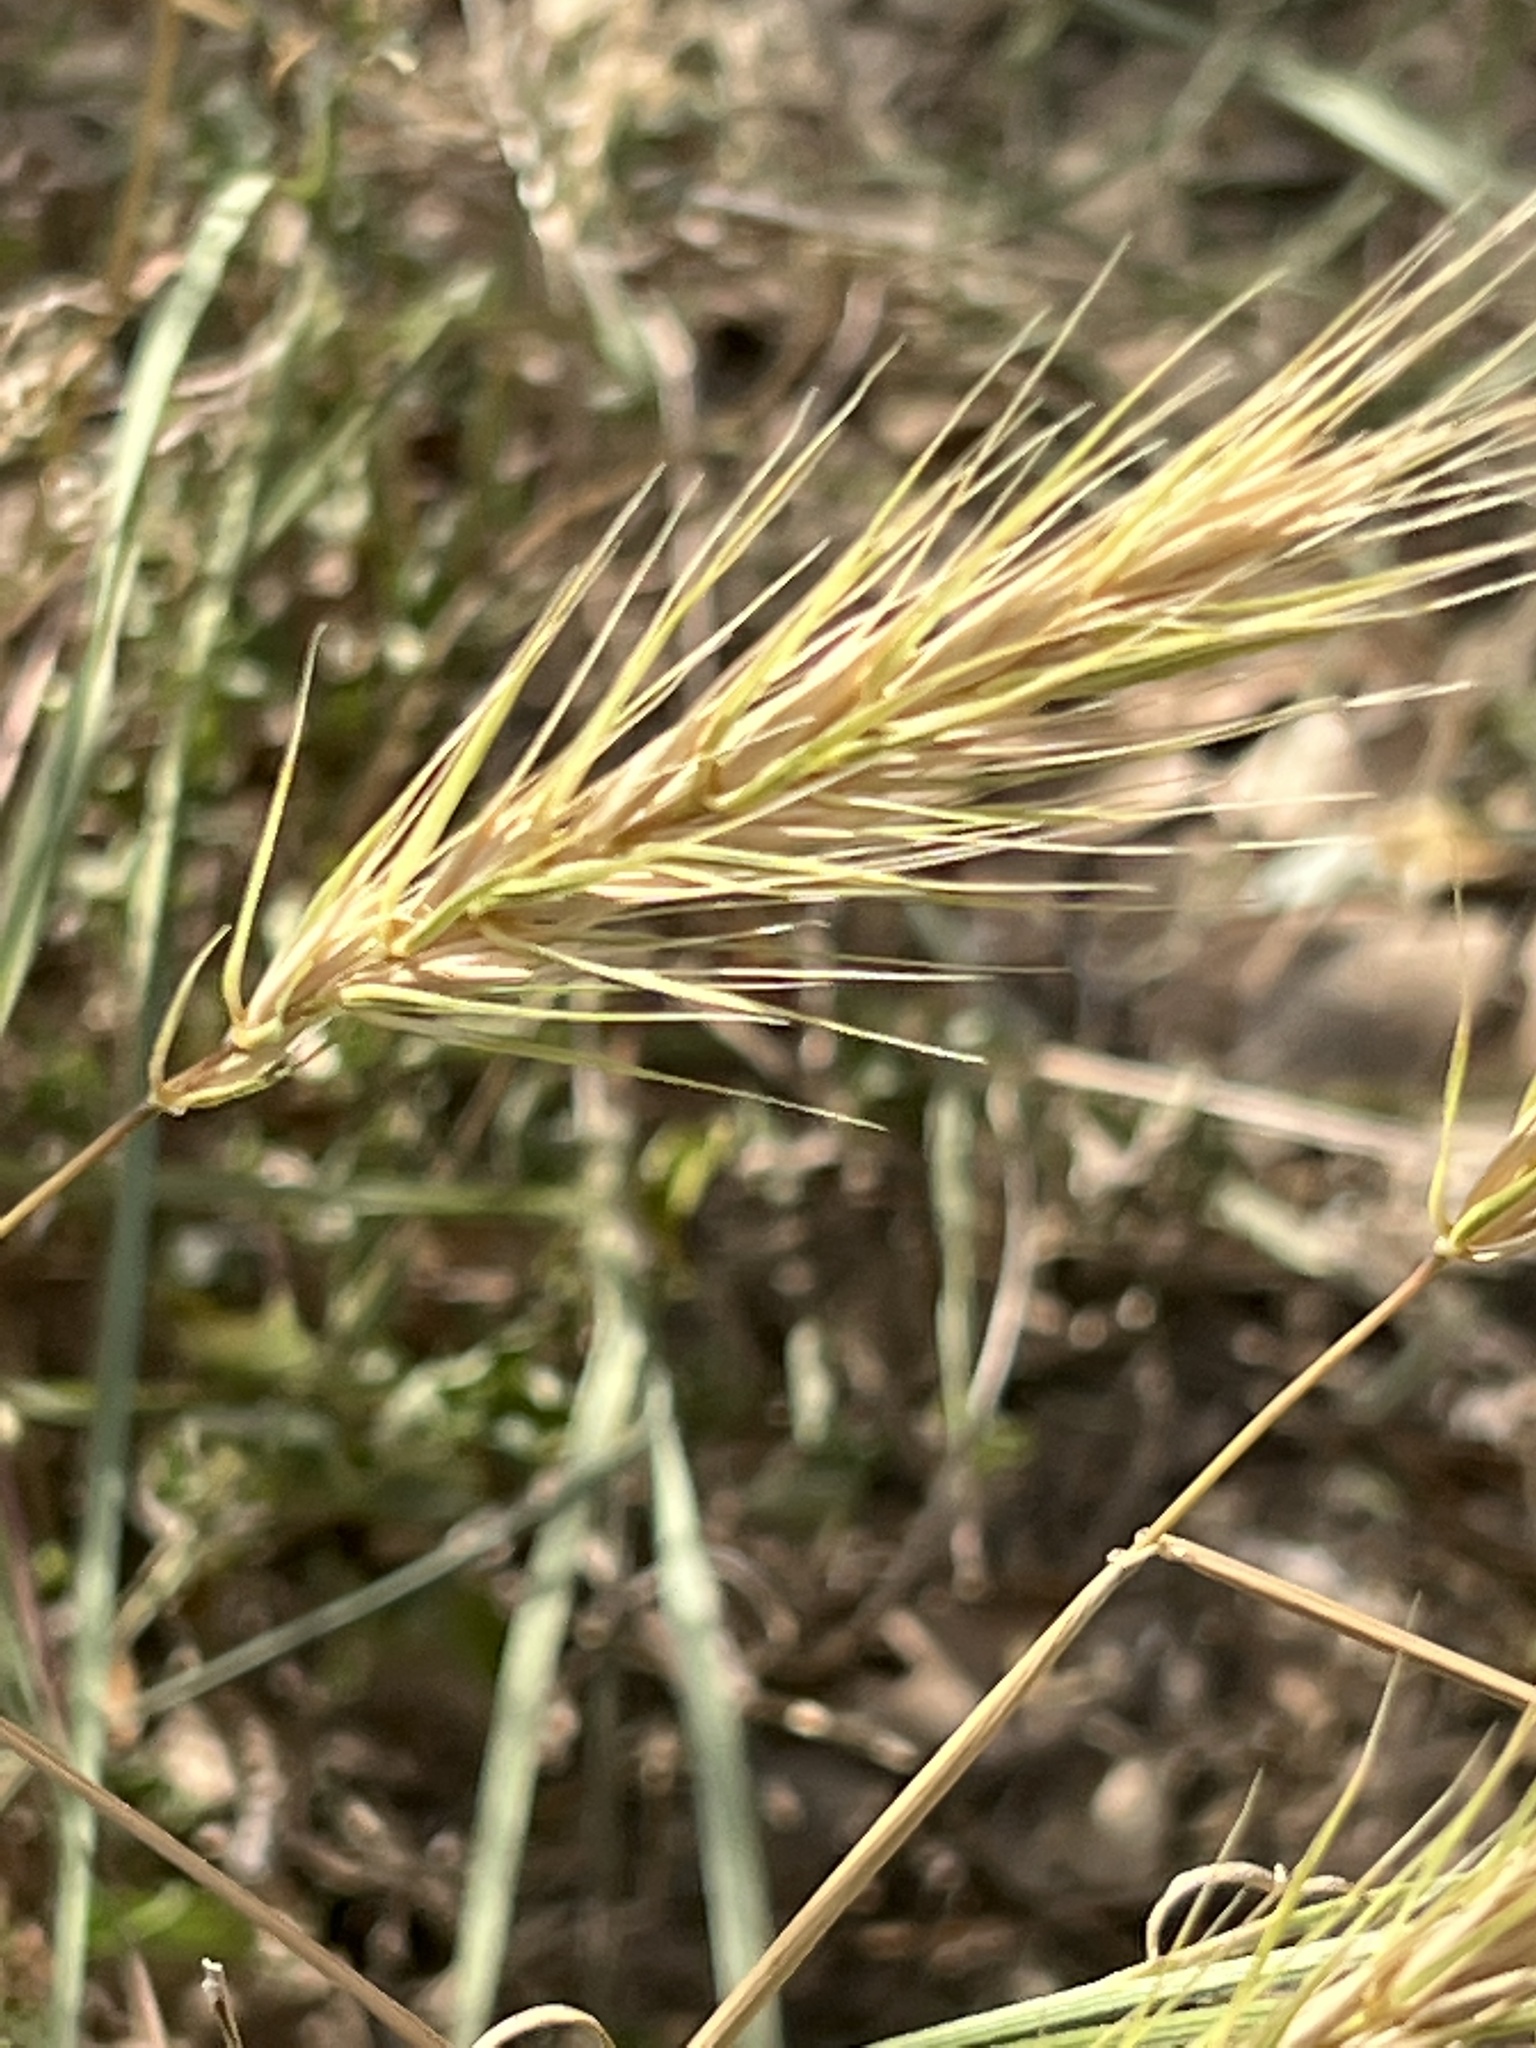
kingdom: Plantae
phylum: Tracheophyta
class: Liliopsida
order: Poales
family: Poaceae
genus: Elymus
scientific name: Elymus virginicus
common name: Common eastern wildrye
